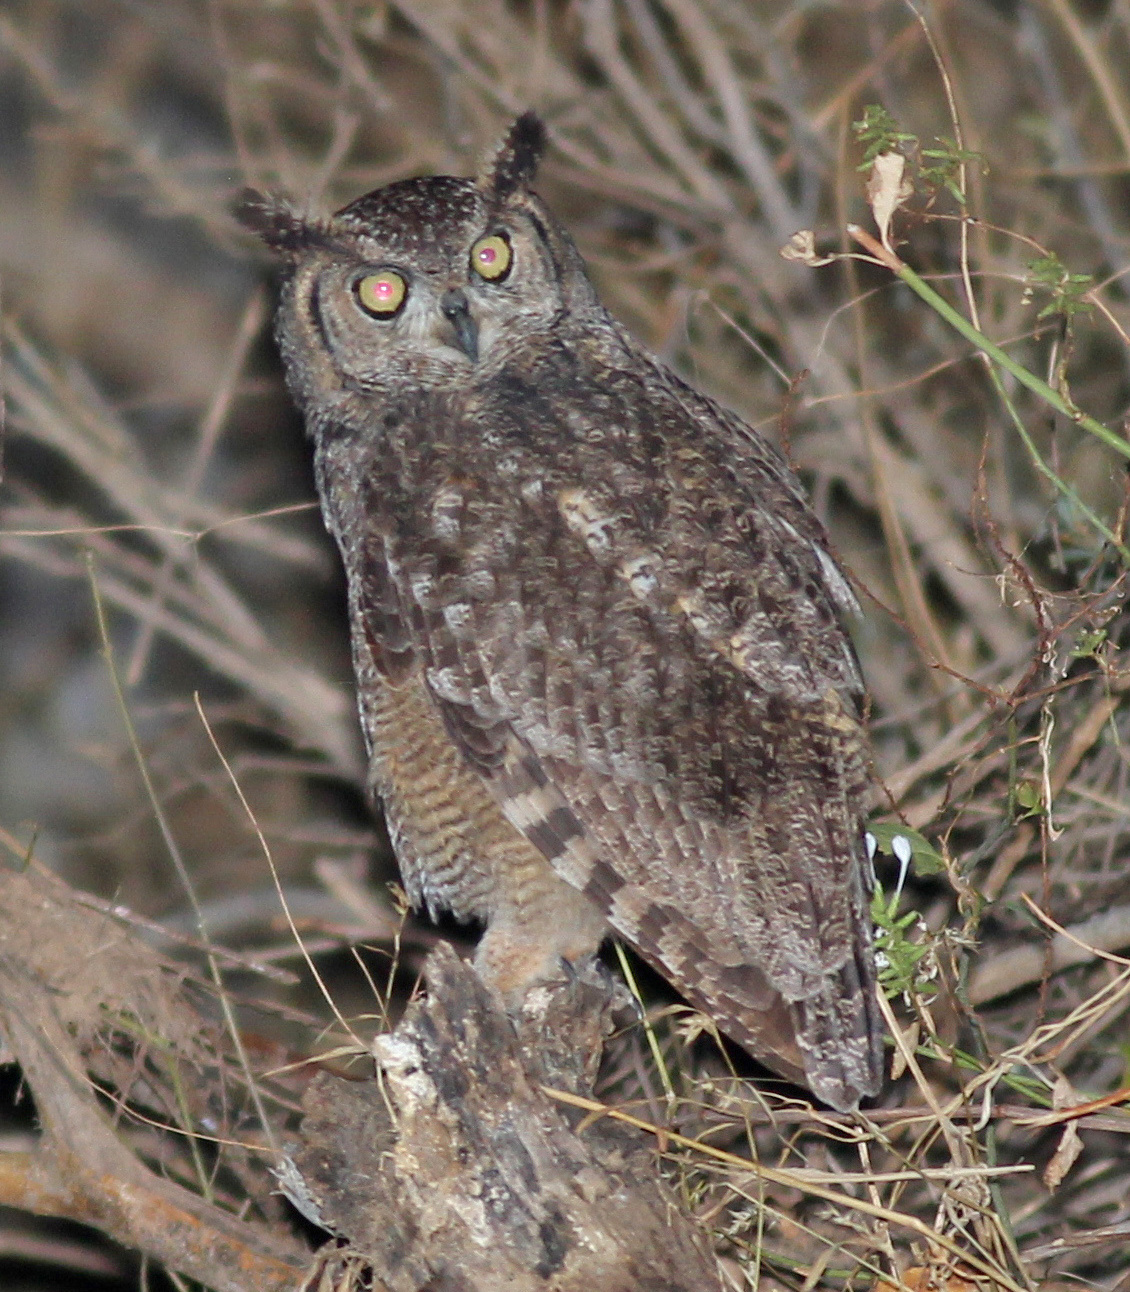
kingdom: Animalia
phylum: Chordata
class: Aves
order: Strigiformes
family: Strigidae
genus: Bubo
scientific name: Bubo africanus
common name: Spotted eagle-owl
